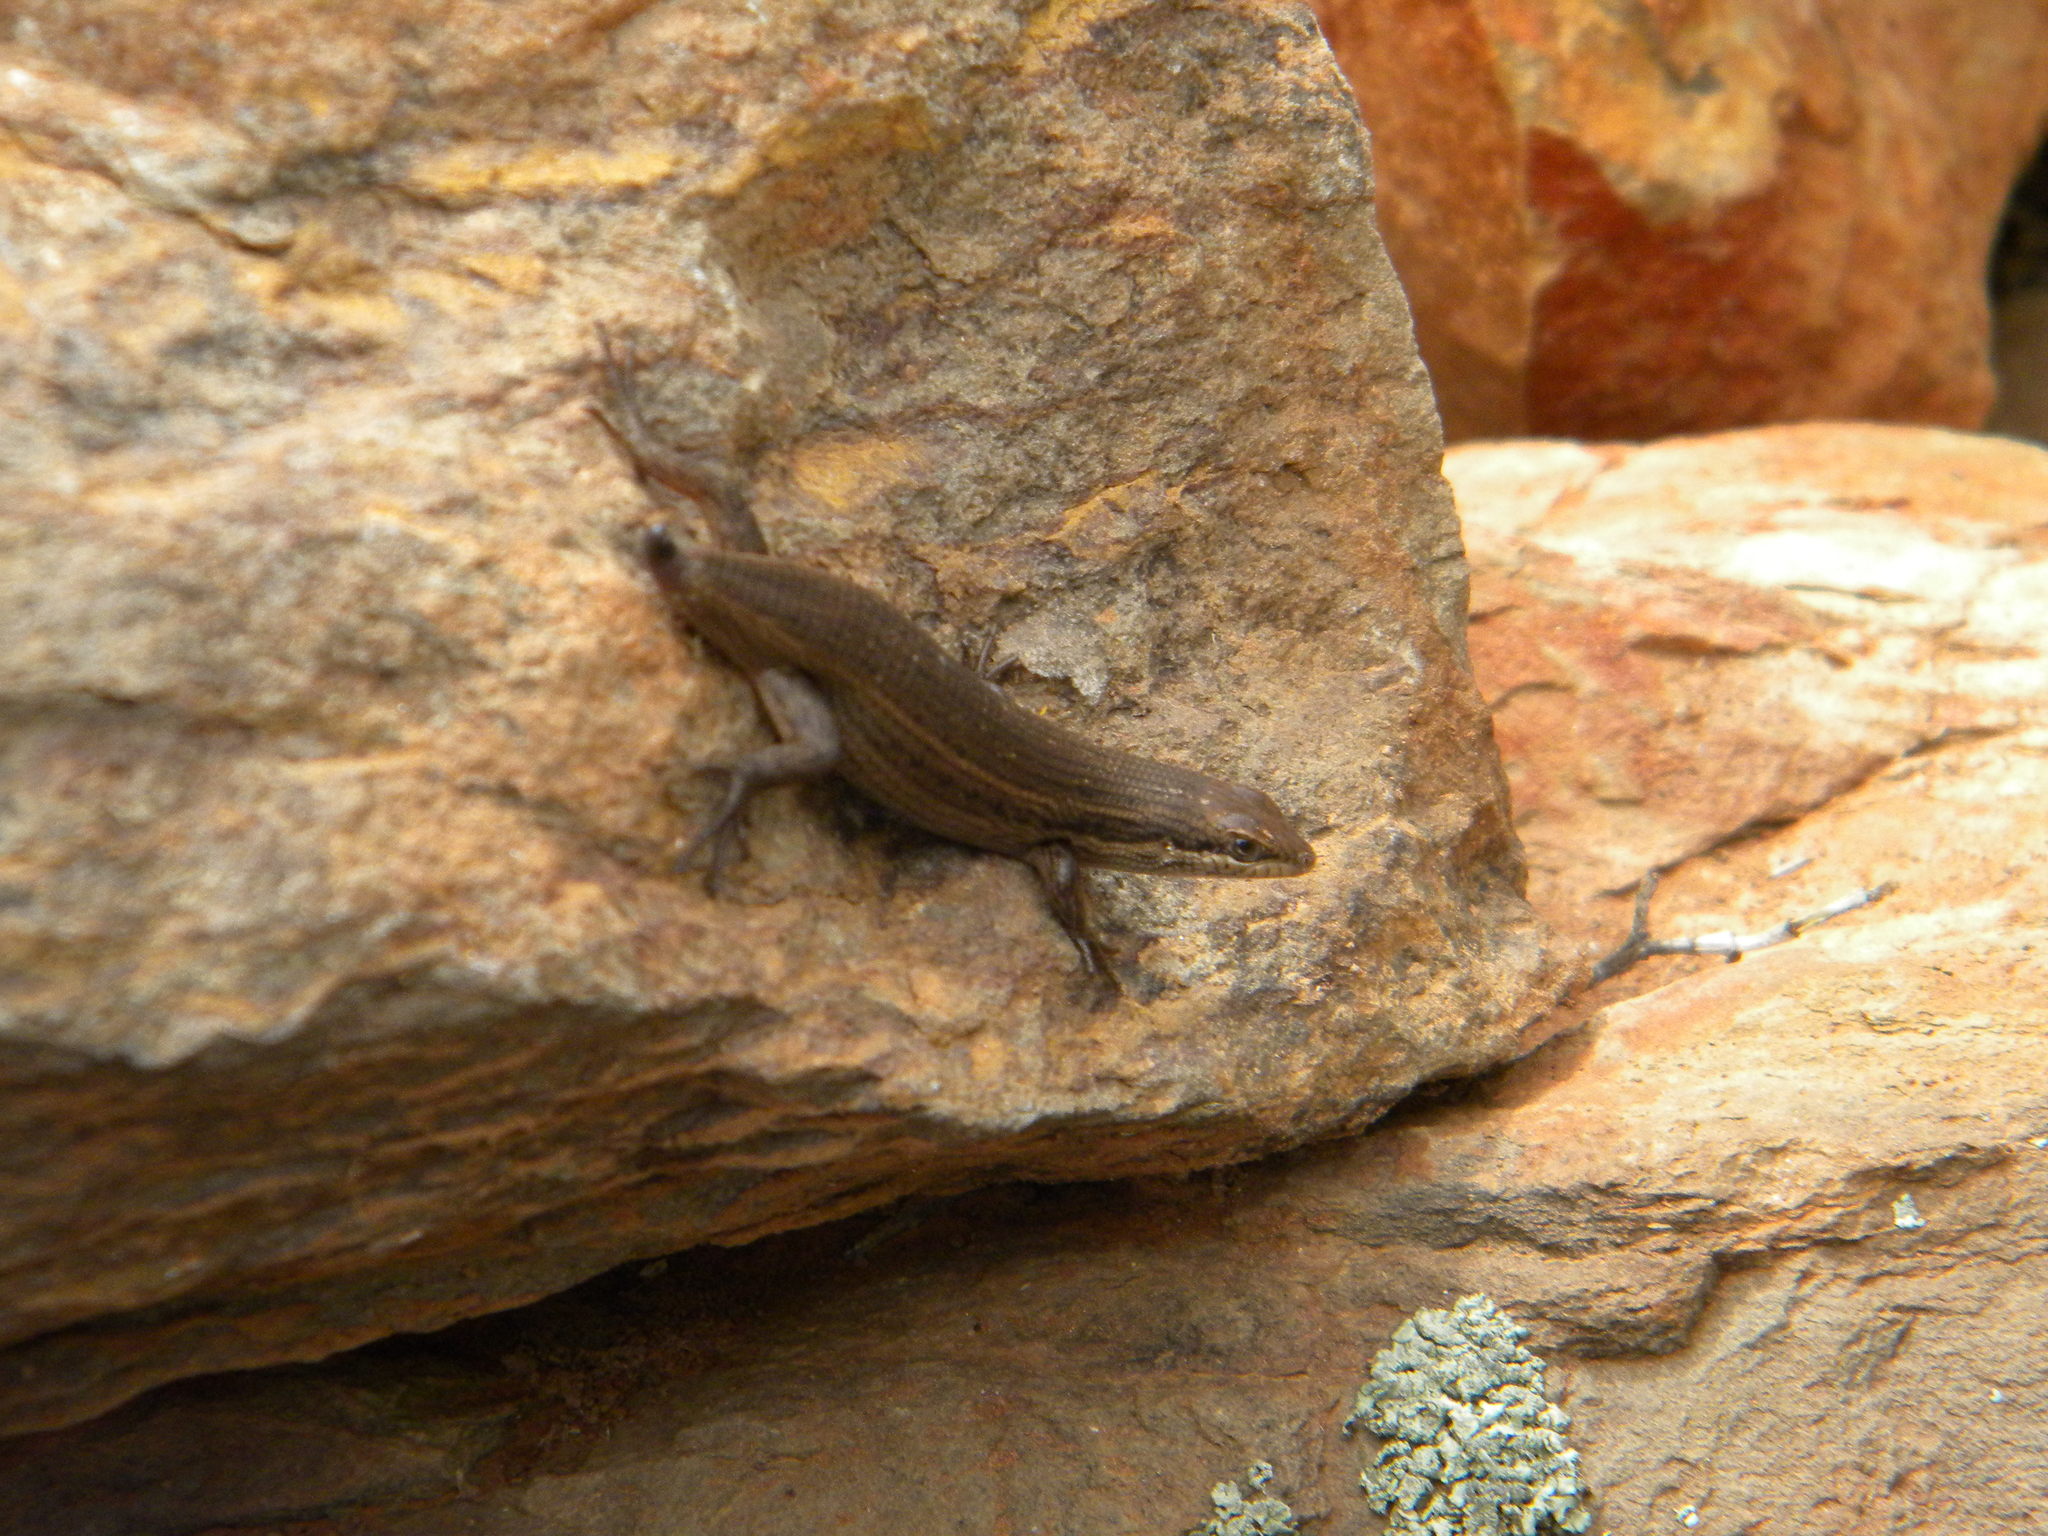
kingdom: Animalia
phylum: Chordata
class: Squamata
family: Scincidae
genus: Trachylepis
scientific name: Trachylepis variegata
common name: Variegated skink
